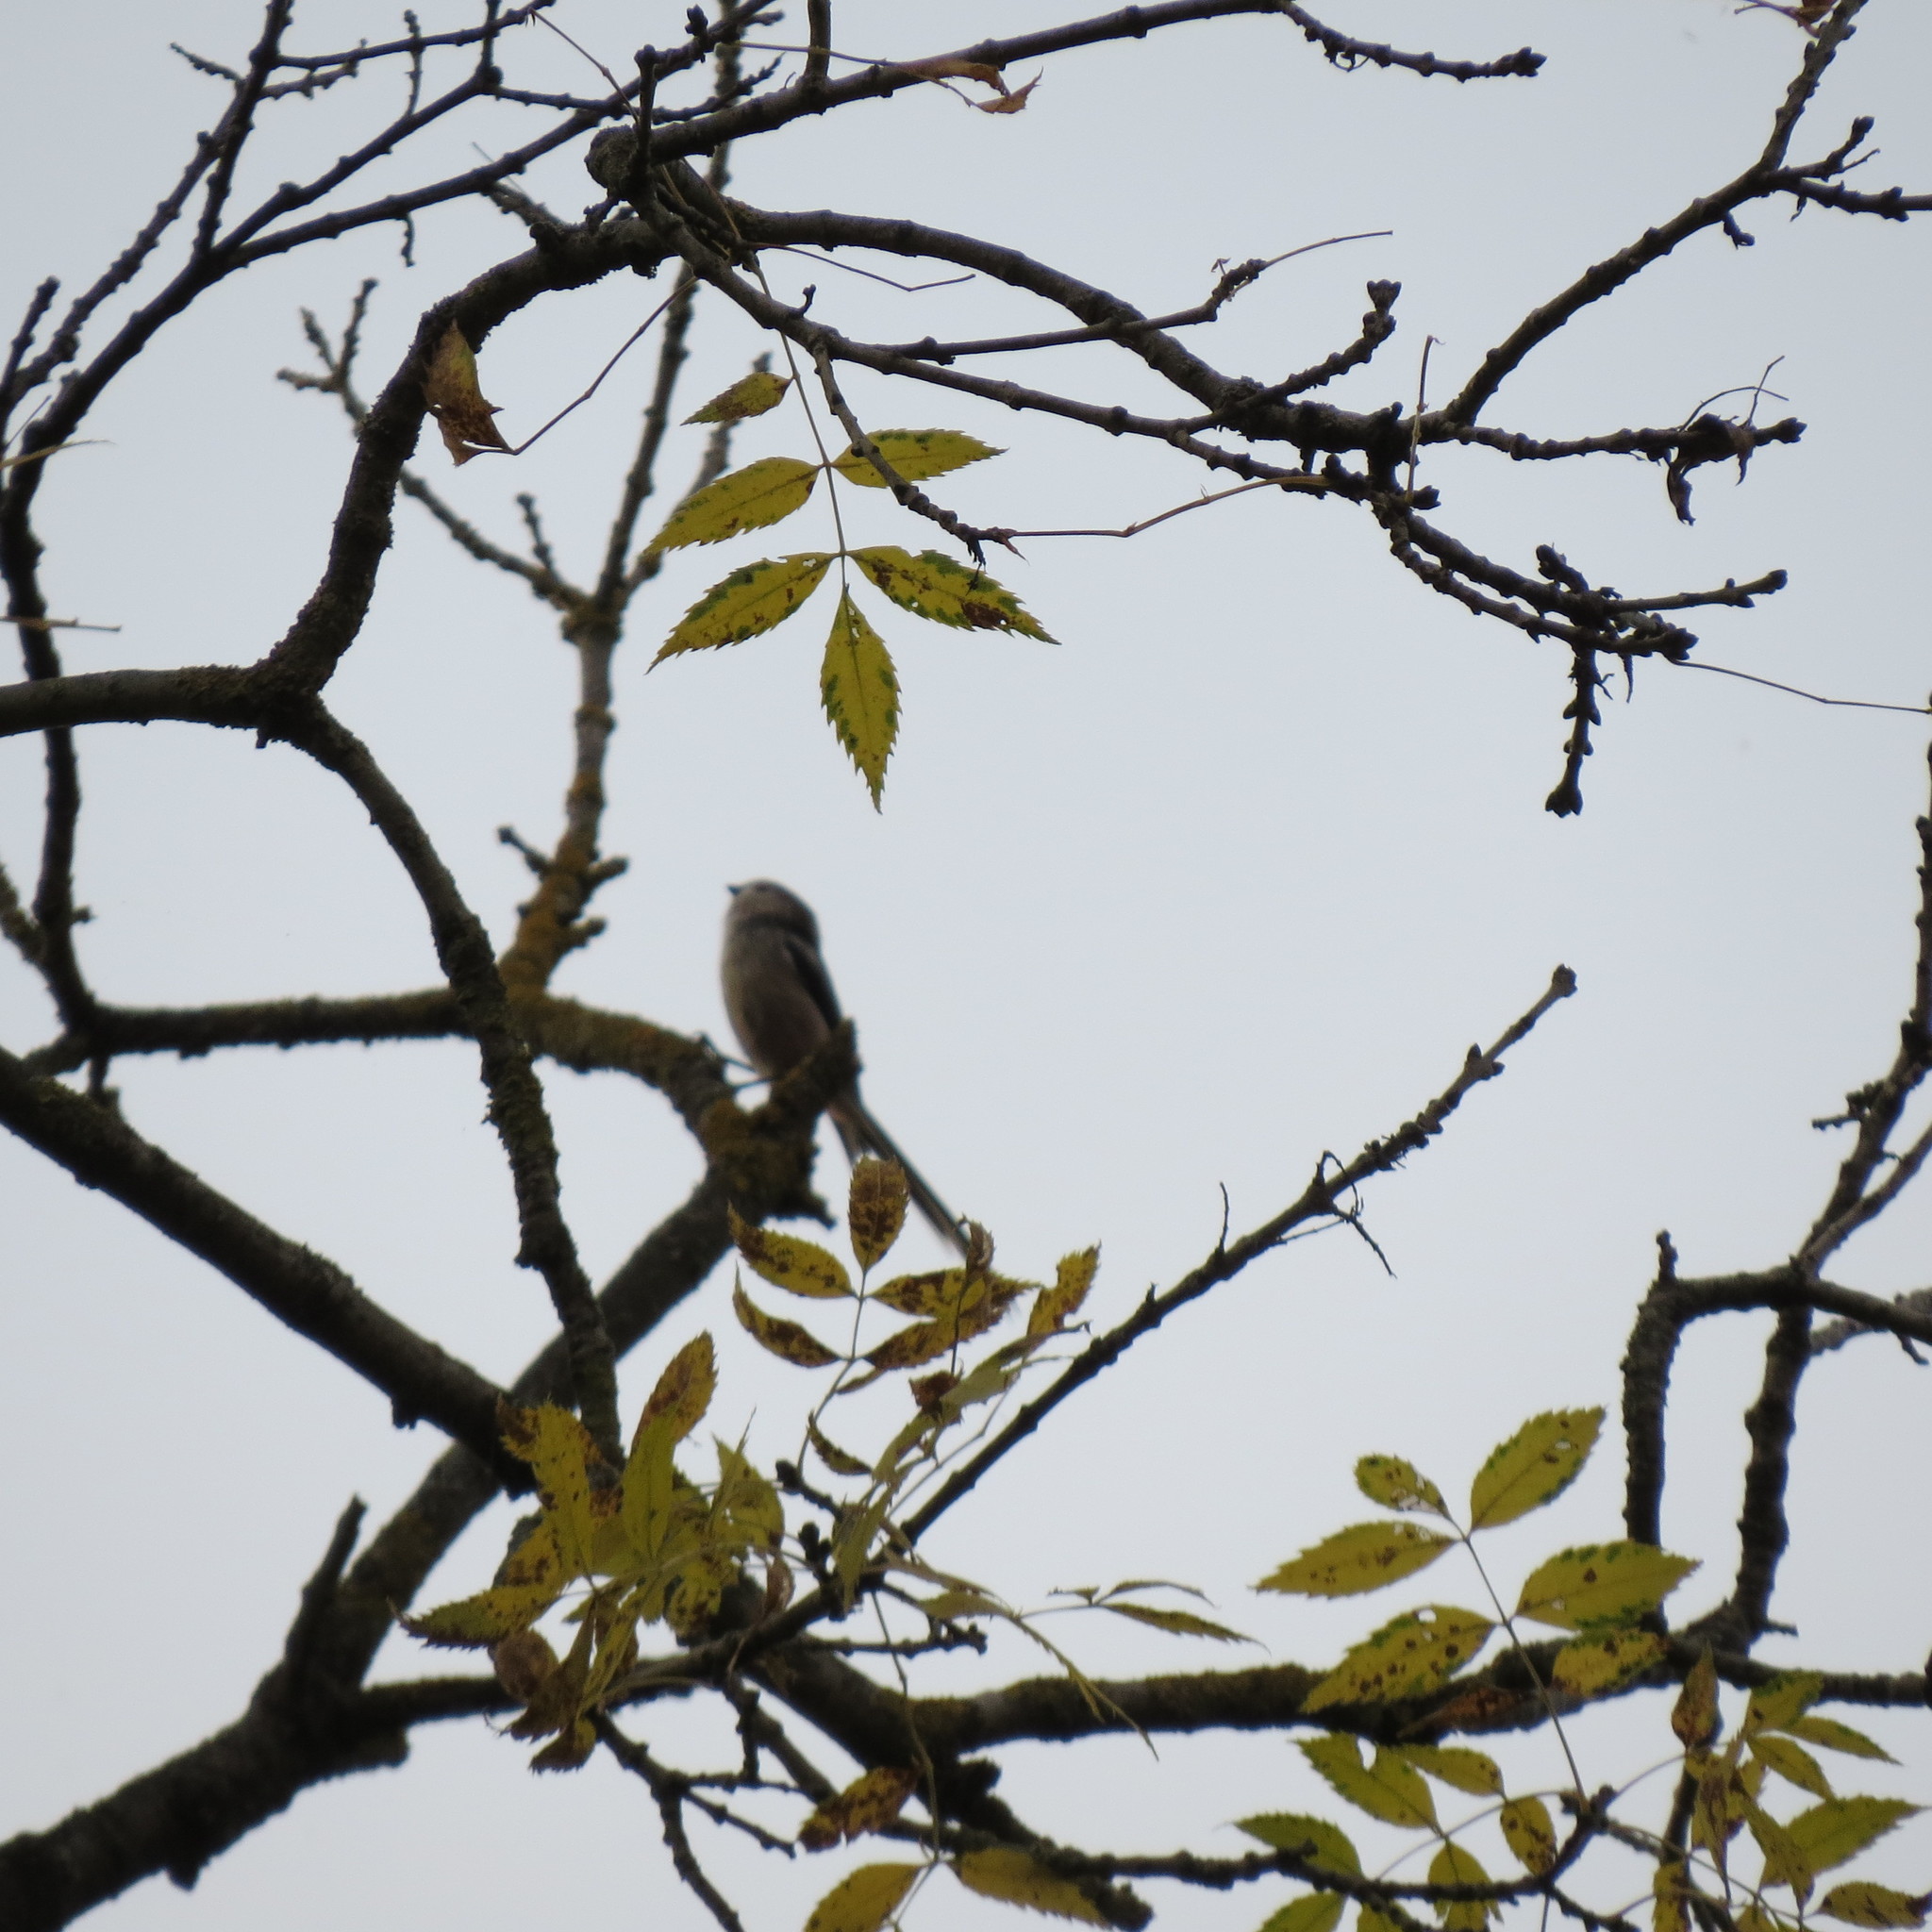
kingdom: Animalia
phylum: Chordata
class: Aves
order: Passeriformes
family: Aegithalidae
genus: Aegithalos
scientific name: Aegithalos caudatus
